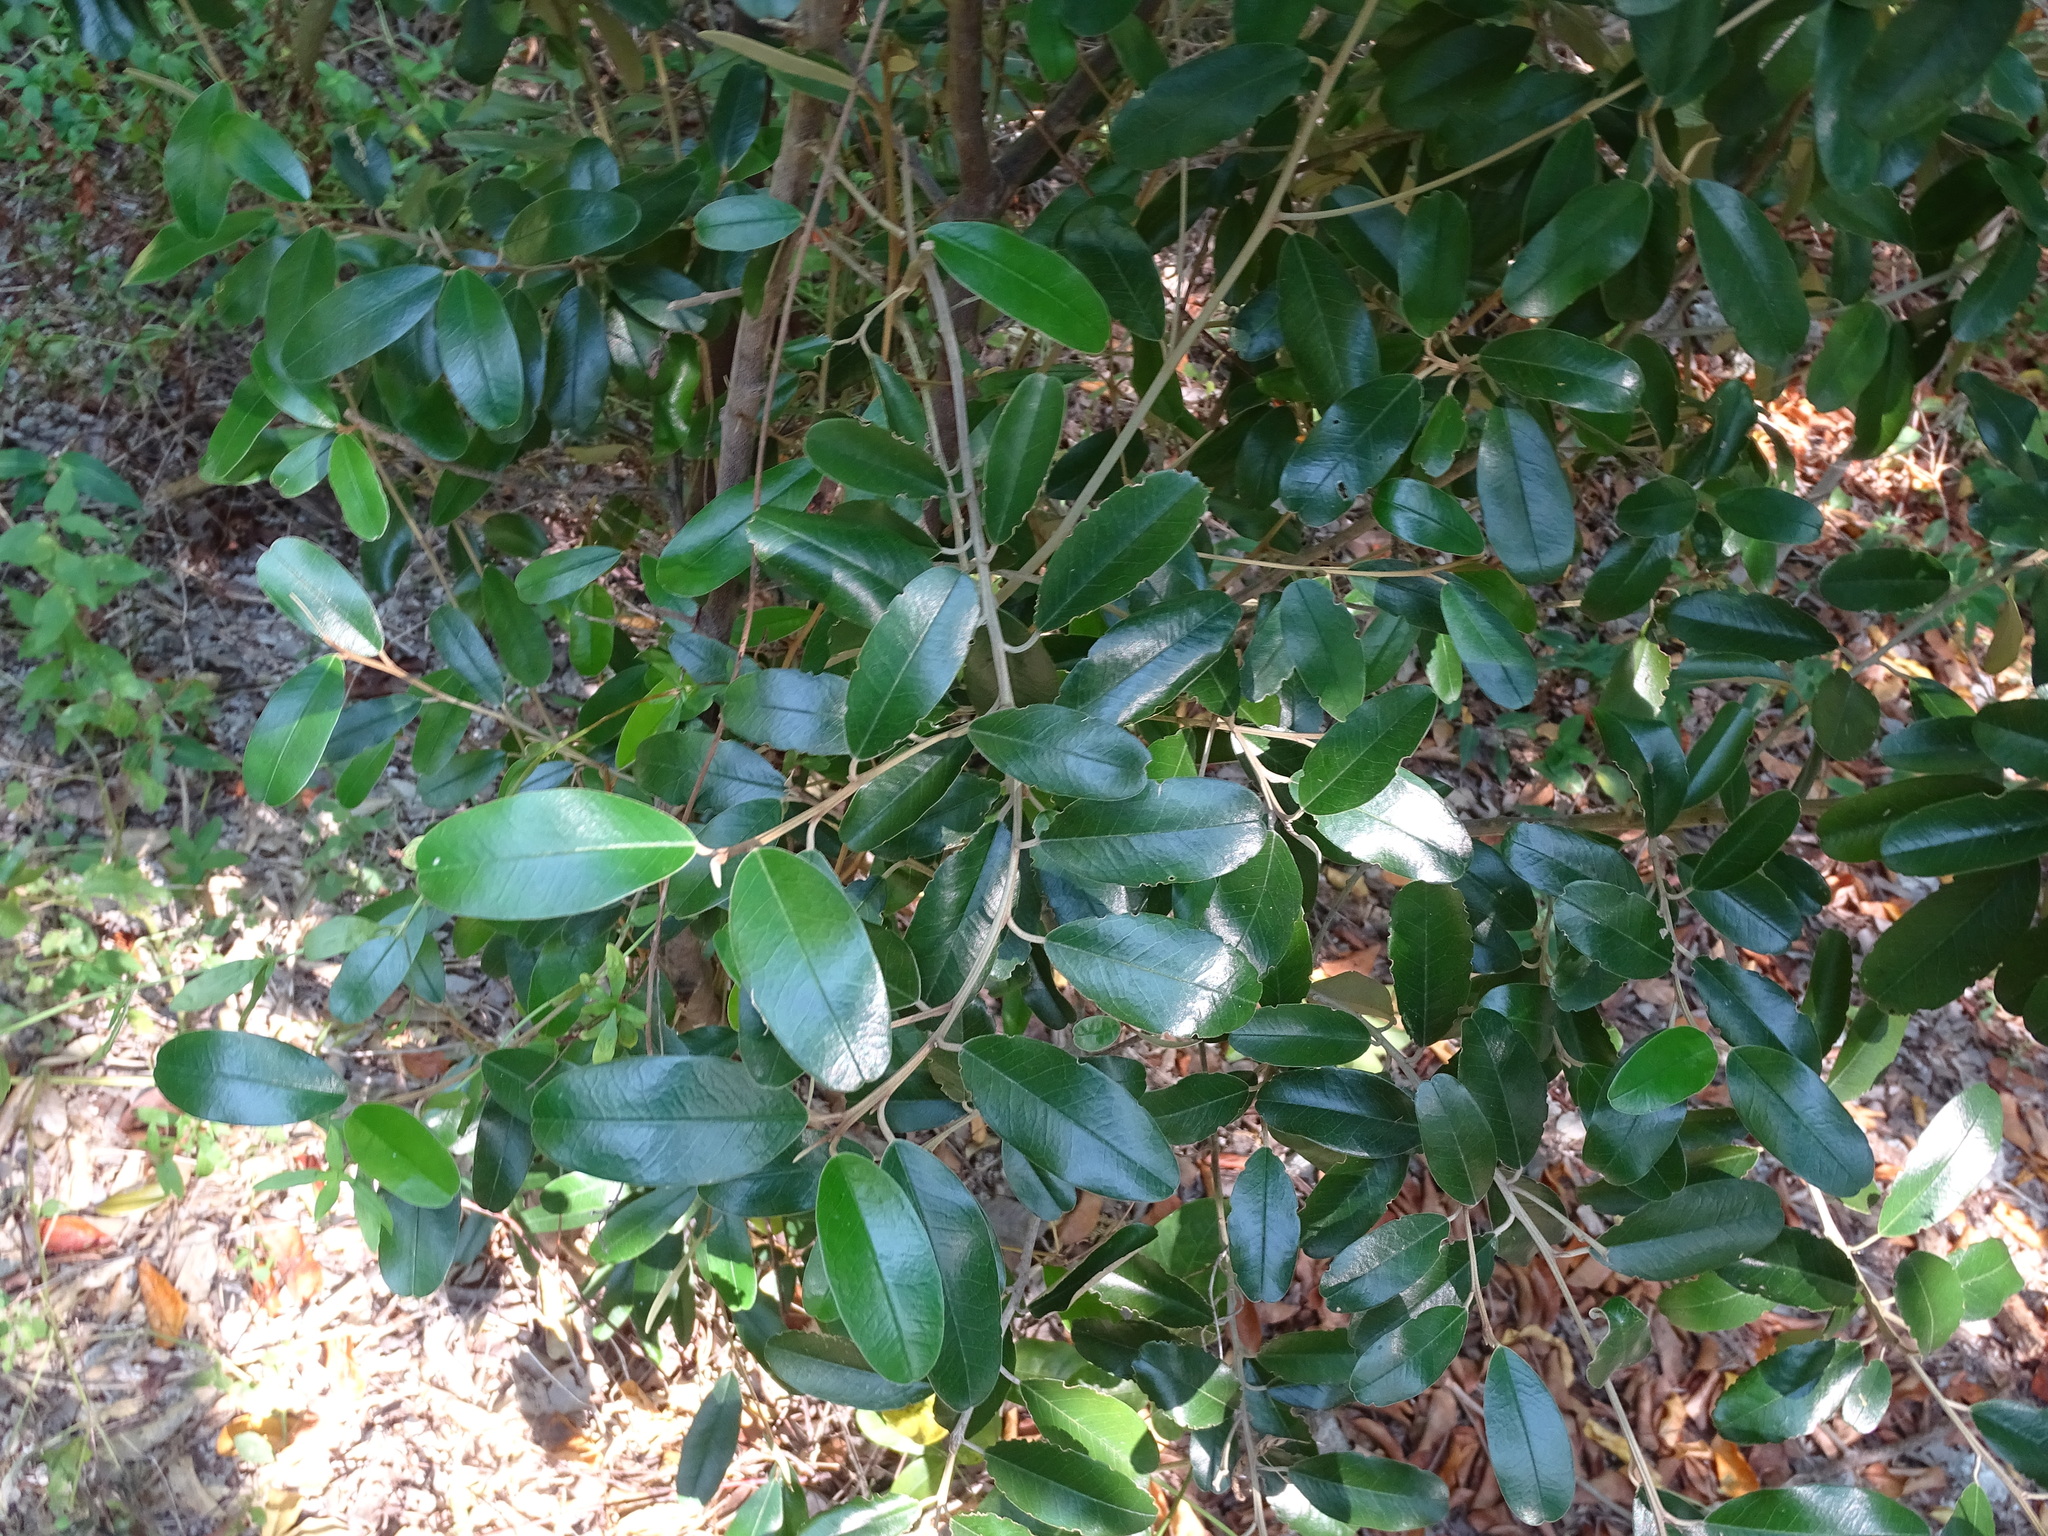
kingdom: Plantae
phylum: Tracheophyta
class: Magnoliopsida
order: Brassicales
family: Capparaceae
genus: Quadrella
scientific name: Quadrella cynophallophora
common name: Black willow
